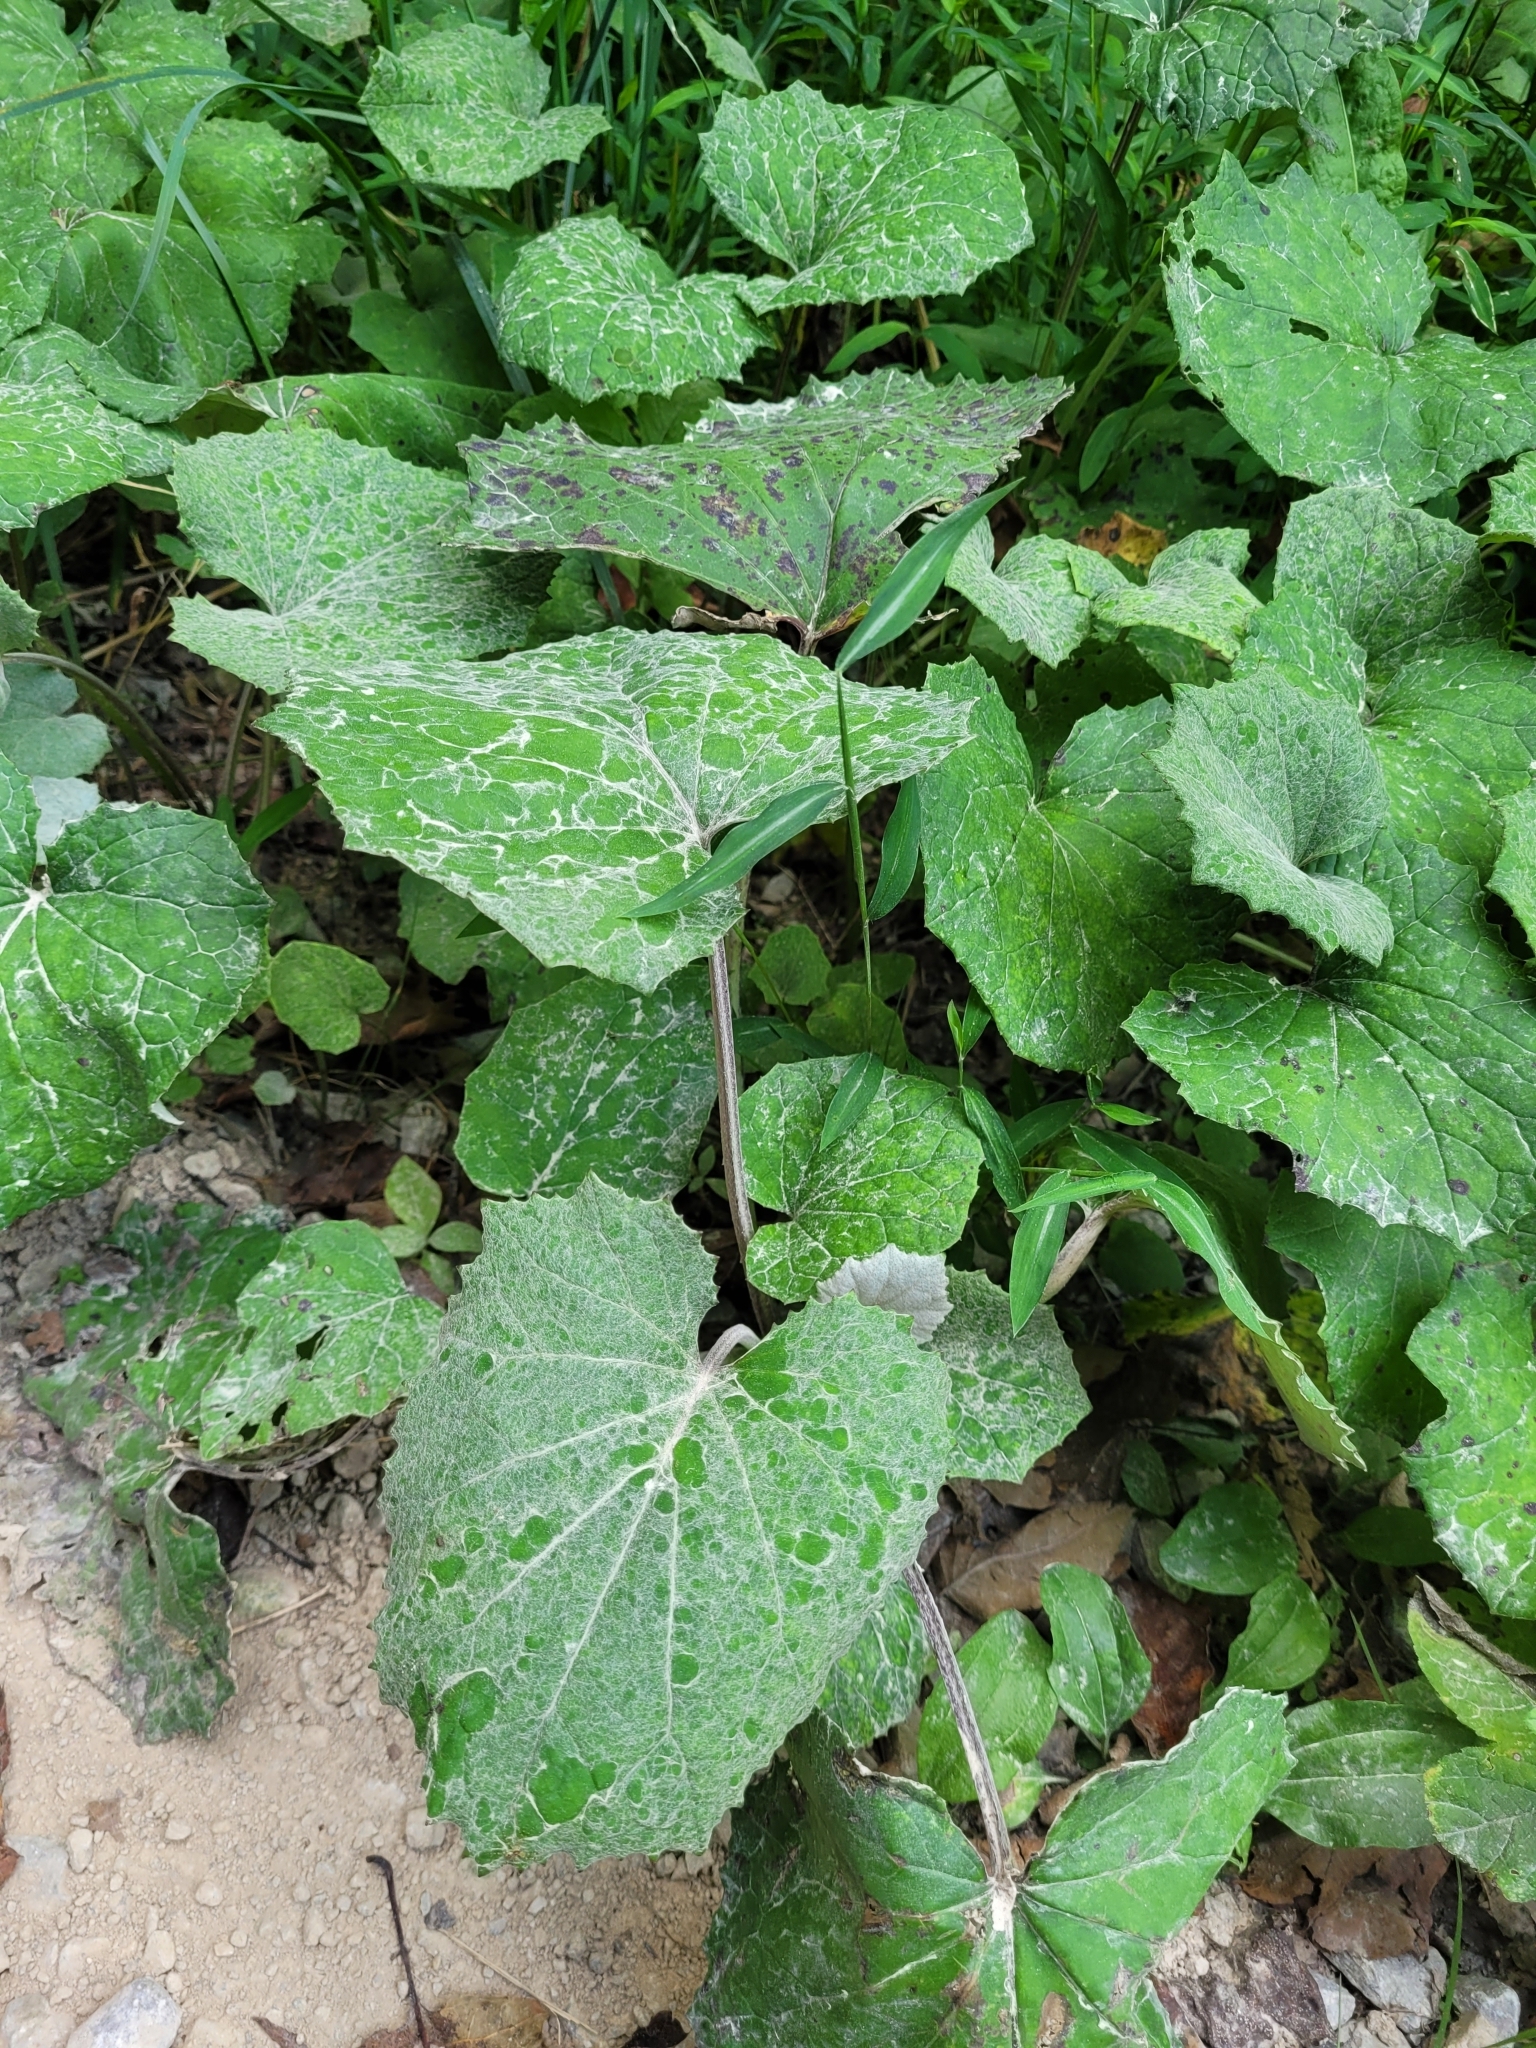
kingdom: Plantae
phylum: Tracheophyta
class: Magnoliopsida
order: Asterales
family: Asteraceae
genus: Tussilago
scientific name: Tussilago farfara
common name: Coltsfoot
